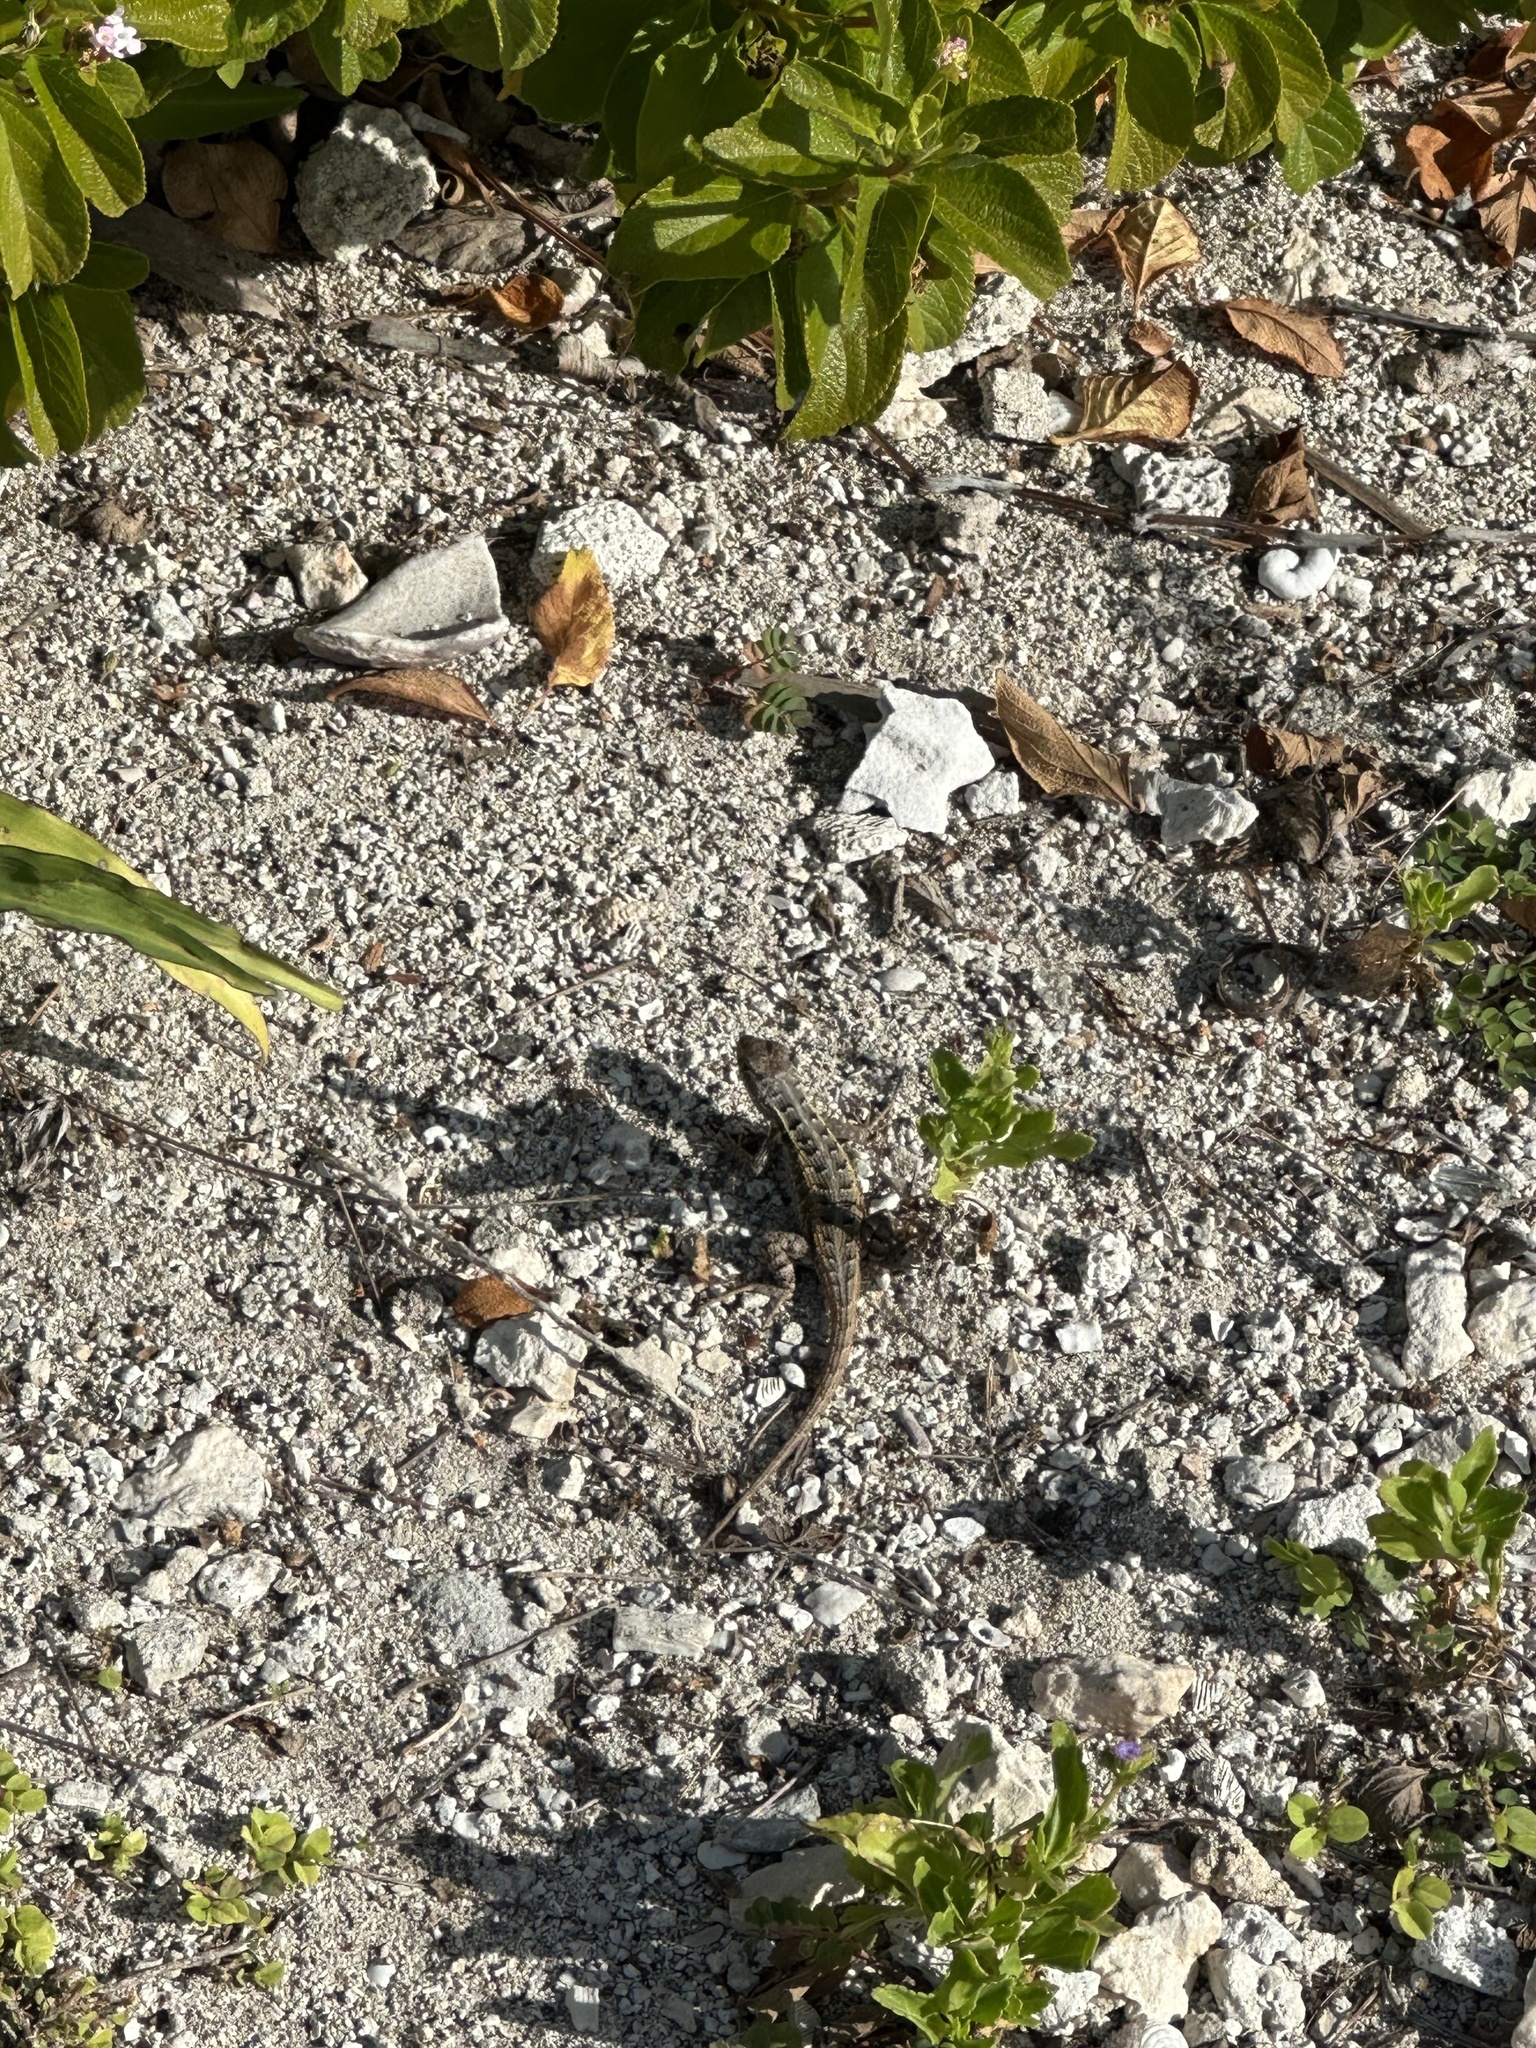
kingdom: Animalia
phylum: Chordata
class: Squamata
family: Phrynosomatidae
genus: Sceloporus
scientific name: Sceloporus cozumelae
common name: Cozumel spiny lizard
